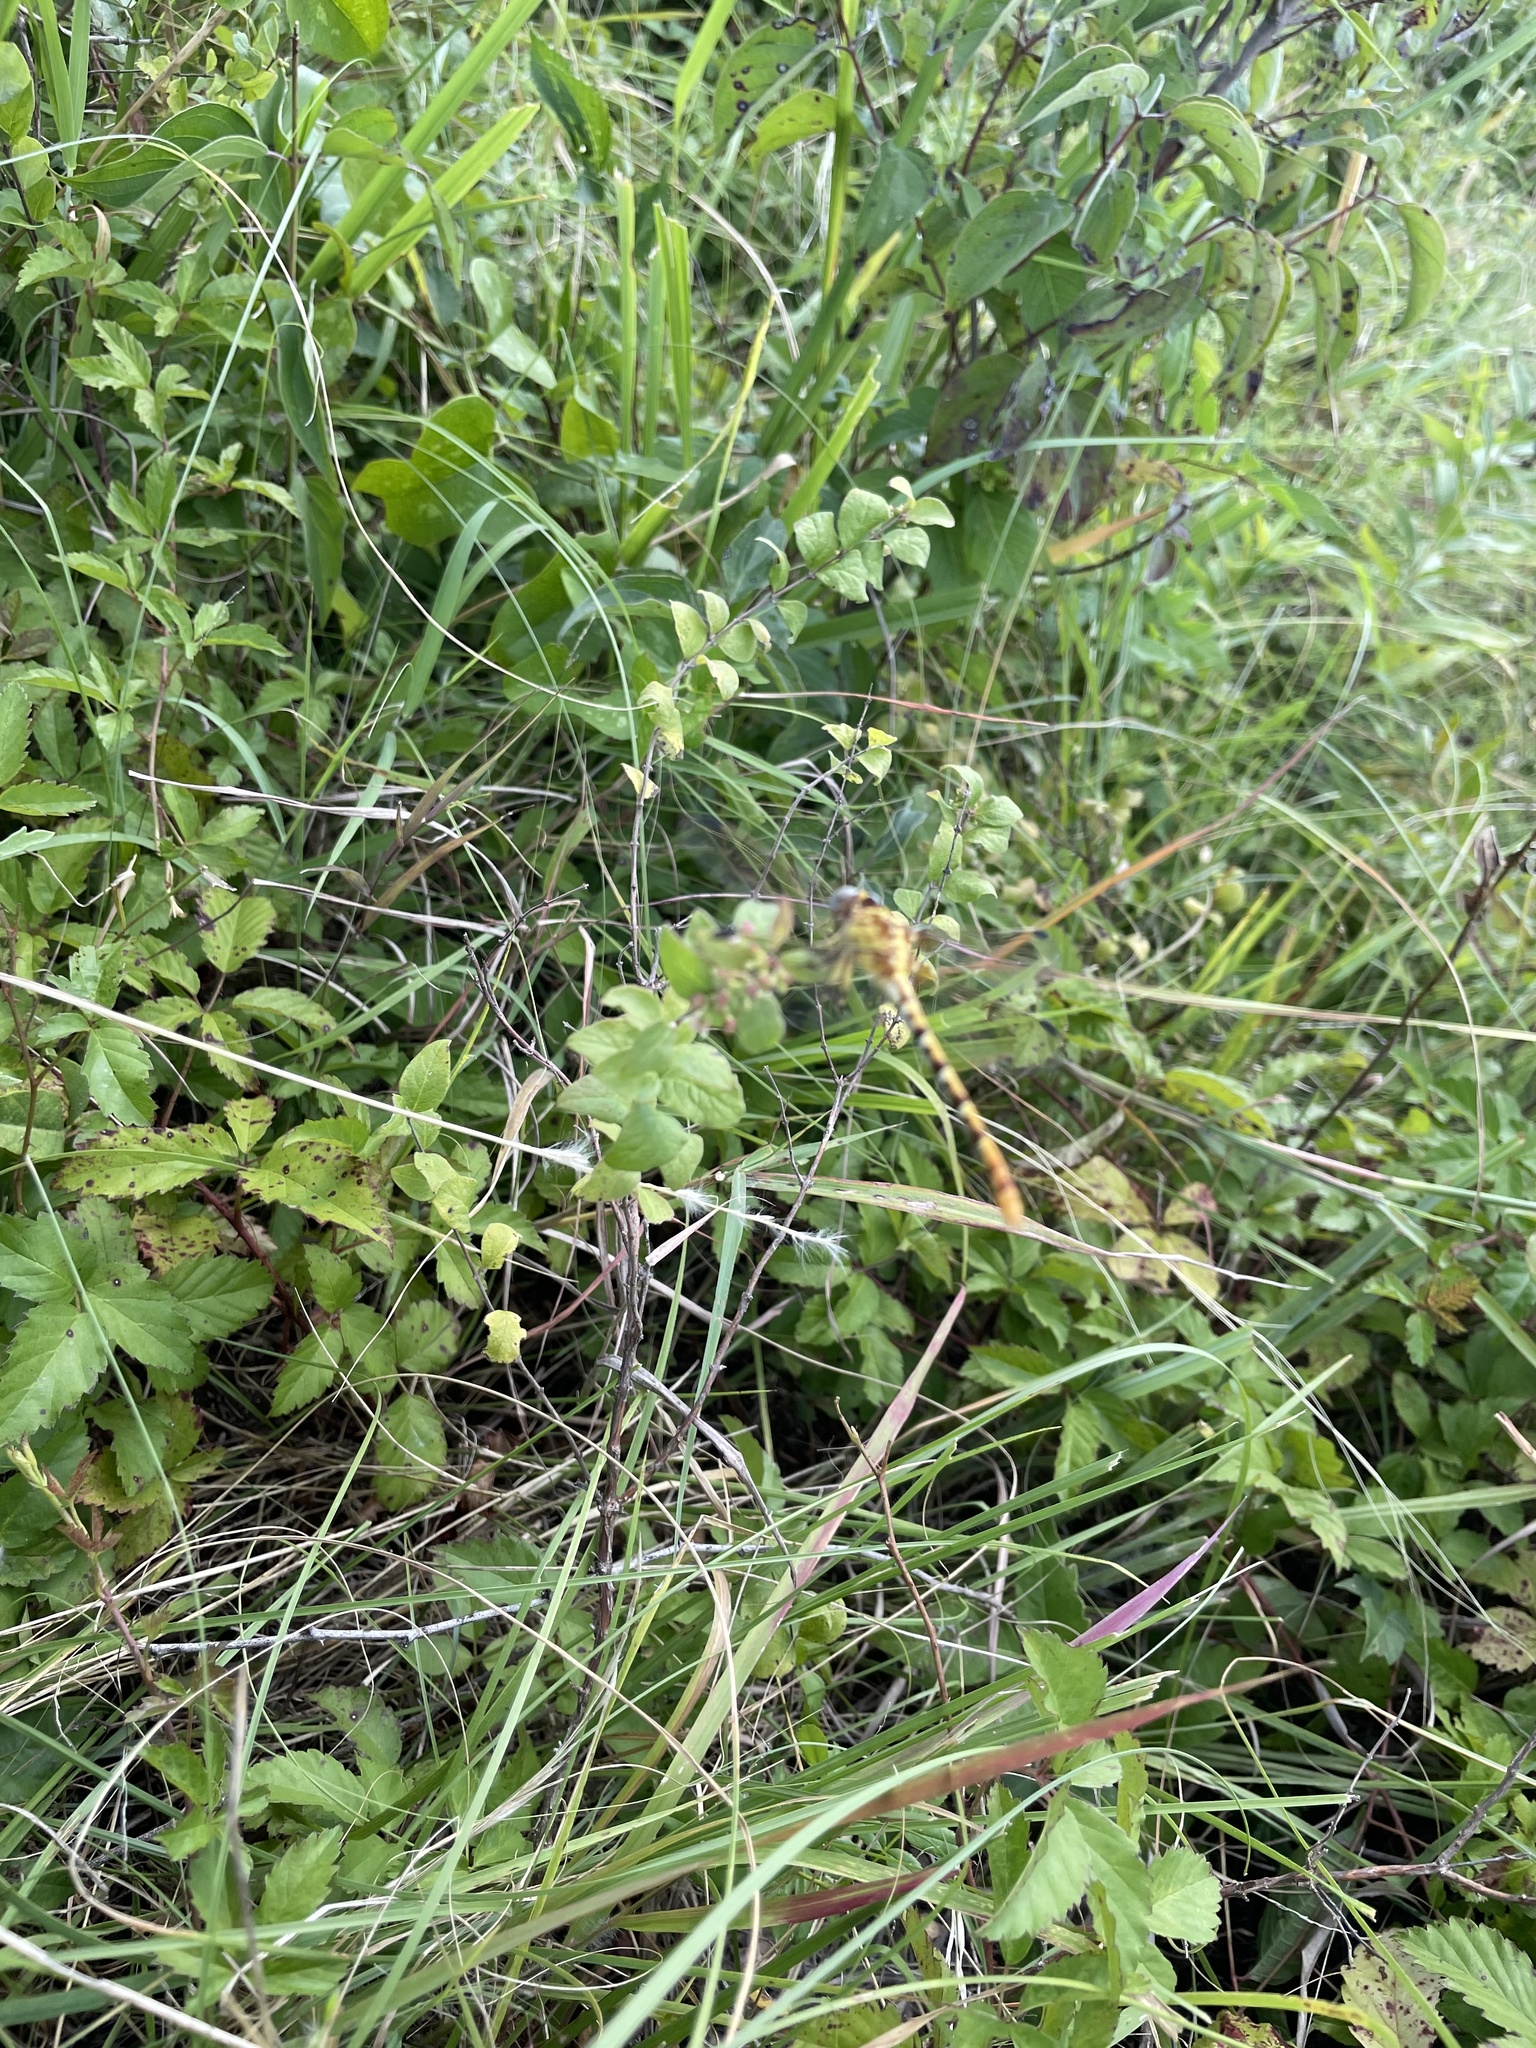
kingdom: Animalia
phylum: Arthropoda
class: Insecta
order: Odonata
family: Gomphidae
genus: Erpetogomphus
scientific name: Erpetogomphus designatus
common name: Eastern ringtail
